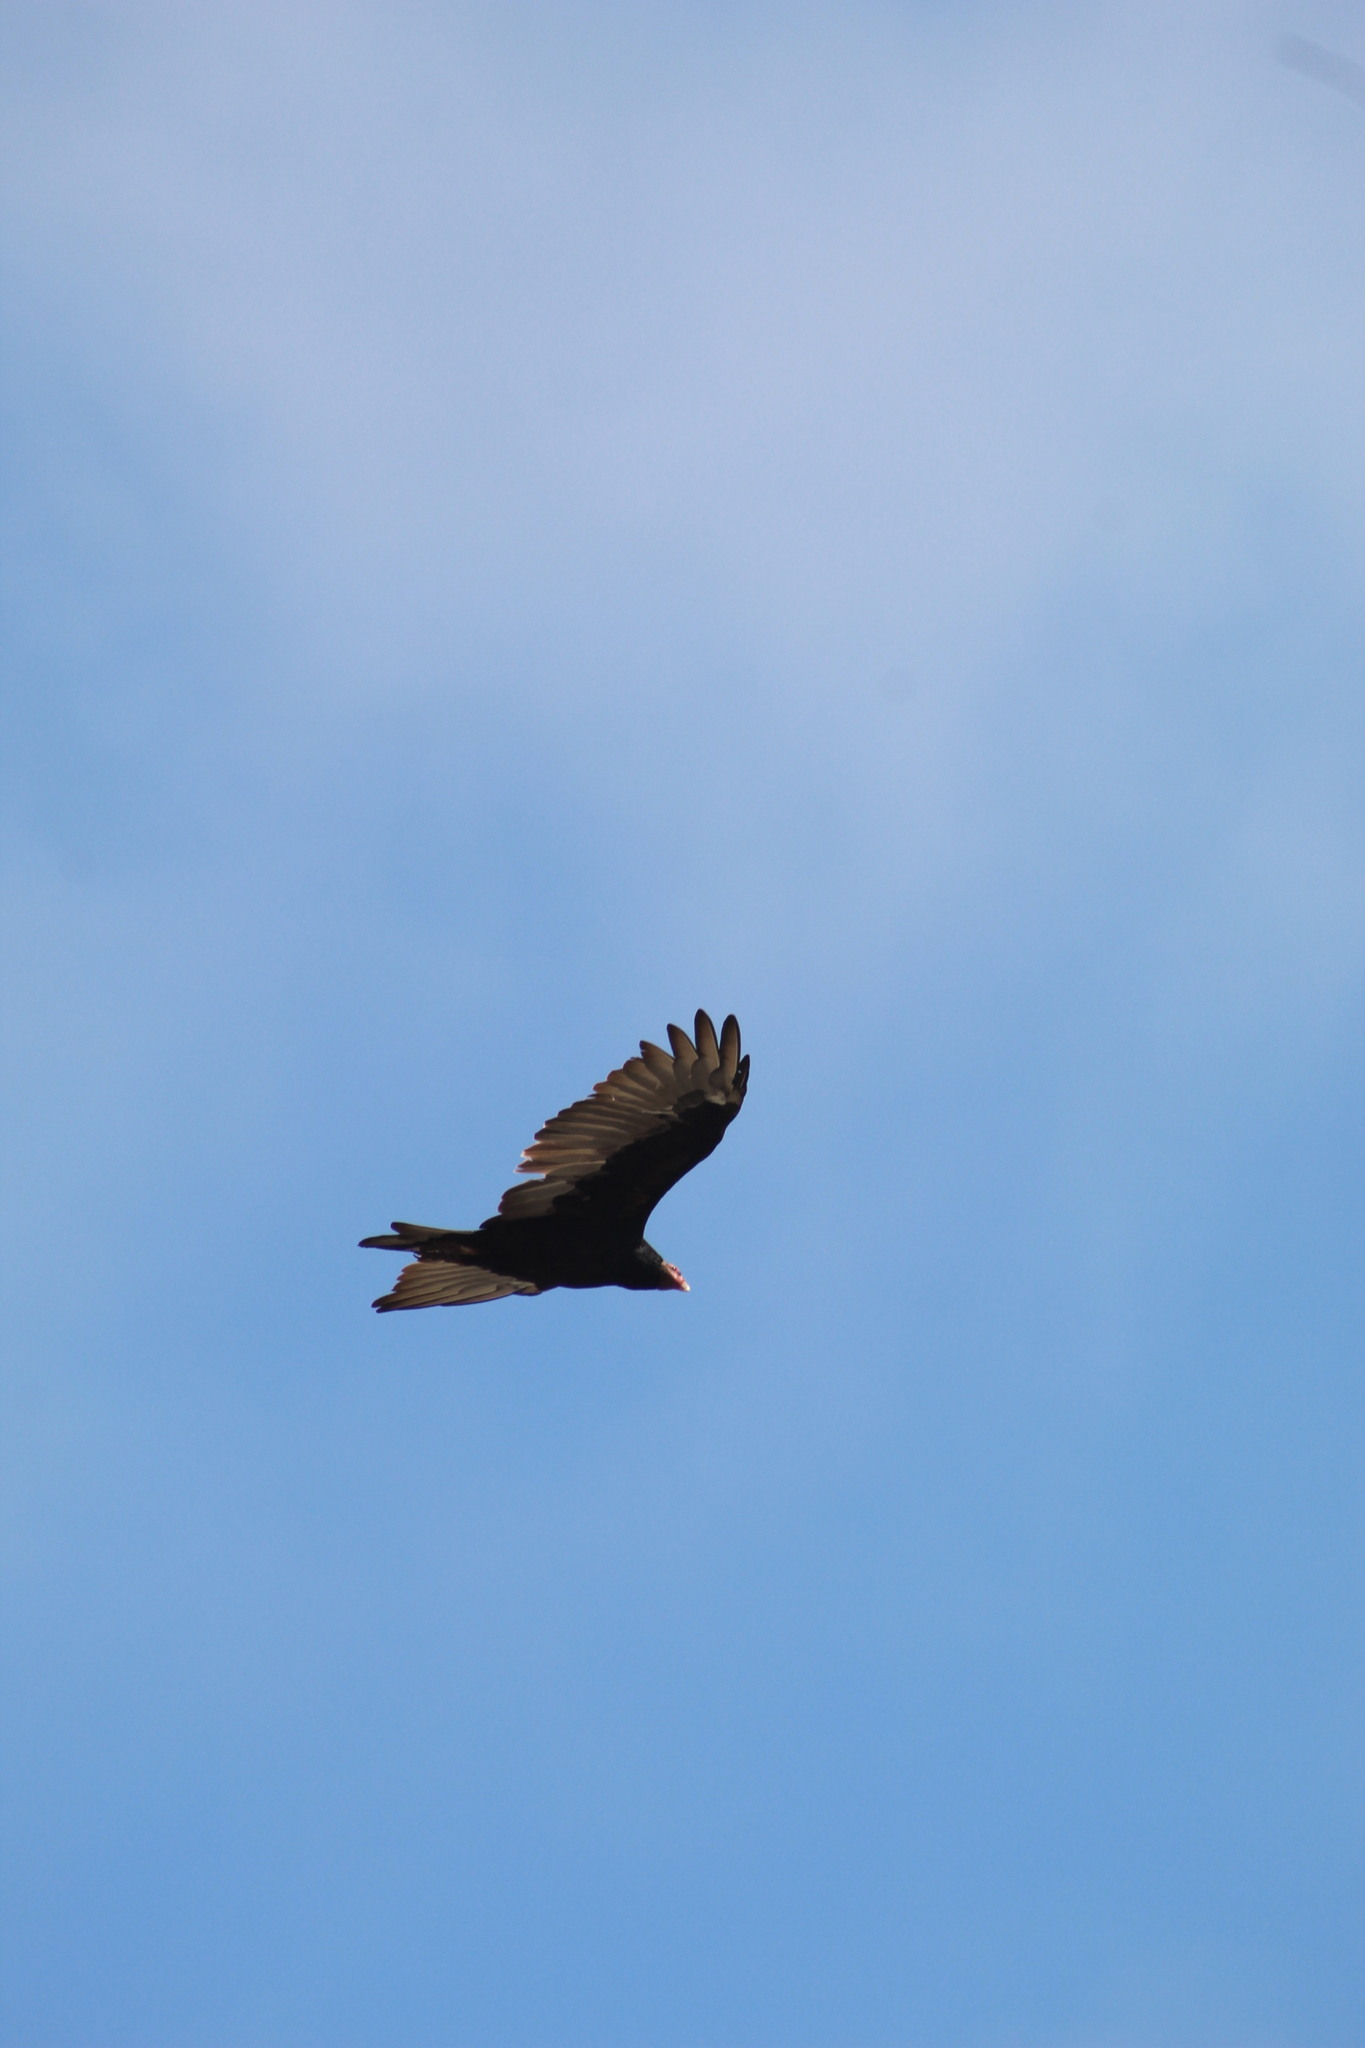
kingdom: Animalia
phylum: Chordata
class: Aves
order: Accipitriformes
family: Cathartidae
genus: Cathartes
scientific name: Cathartes aura
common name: Turkey vulture
